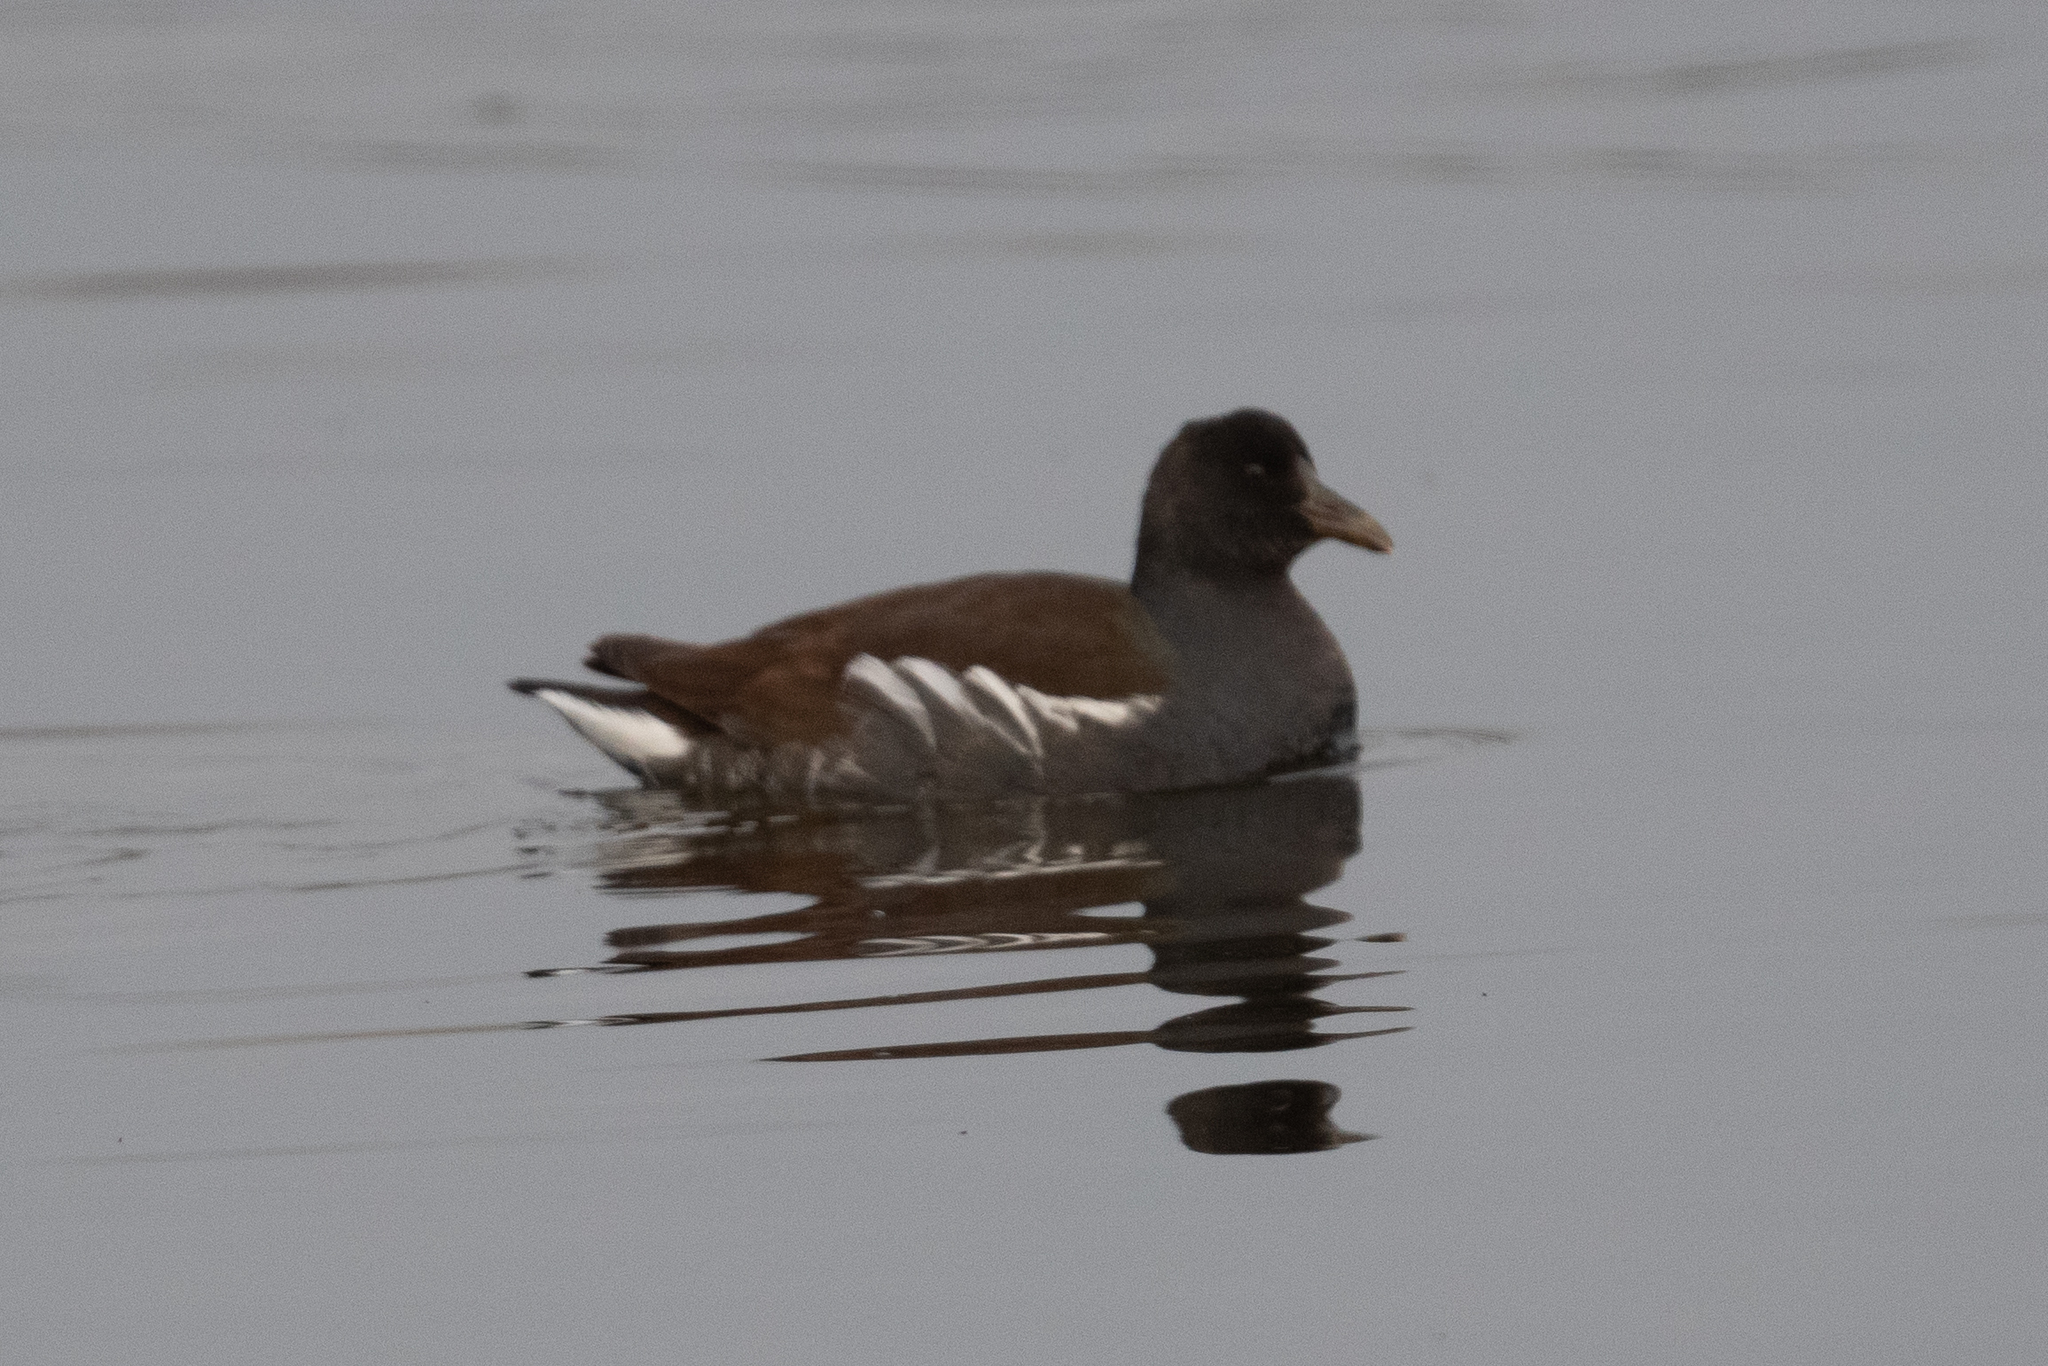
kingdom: Animalia
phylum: Chordata
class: Aves
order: Gruiformes
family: Rallidae
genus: Gallinula
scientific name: Gallinula chloropus
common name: Common moorhen
